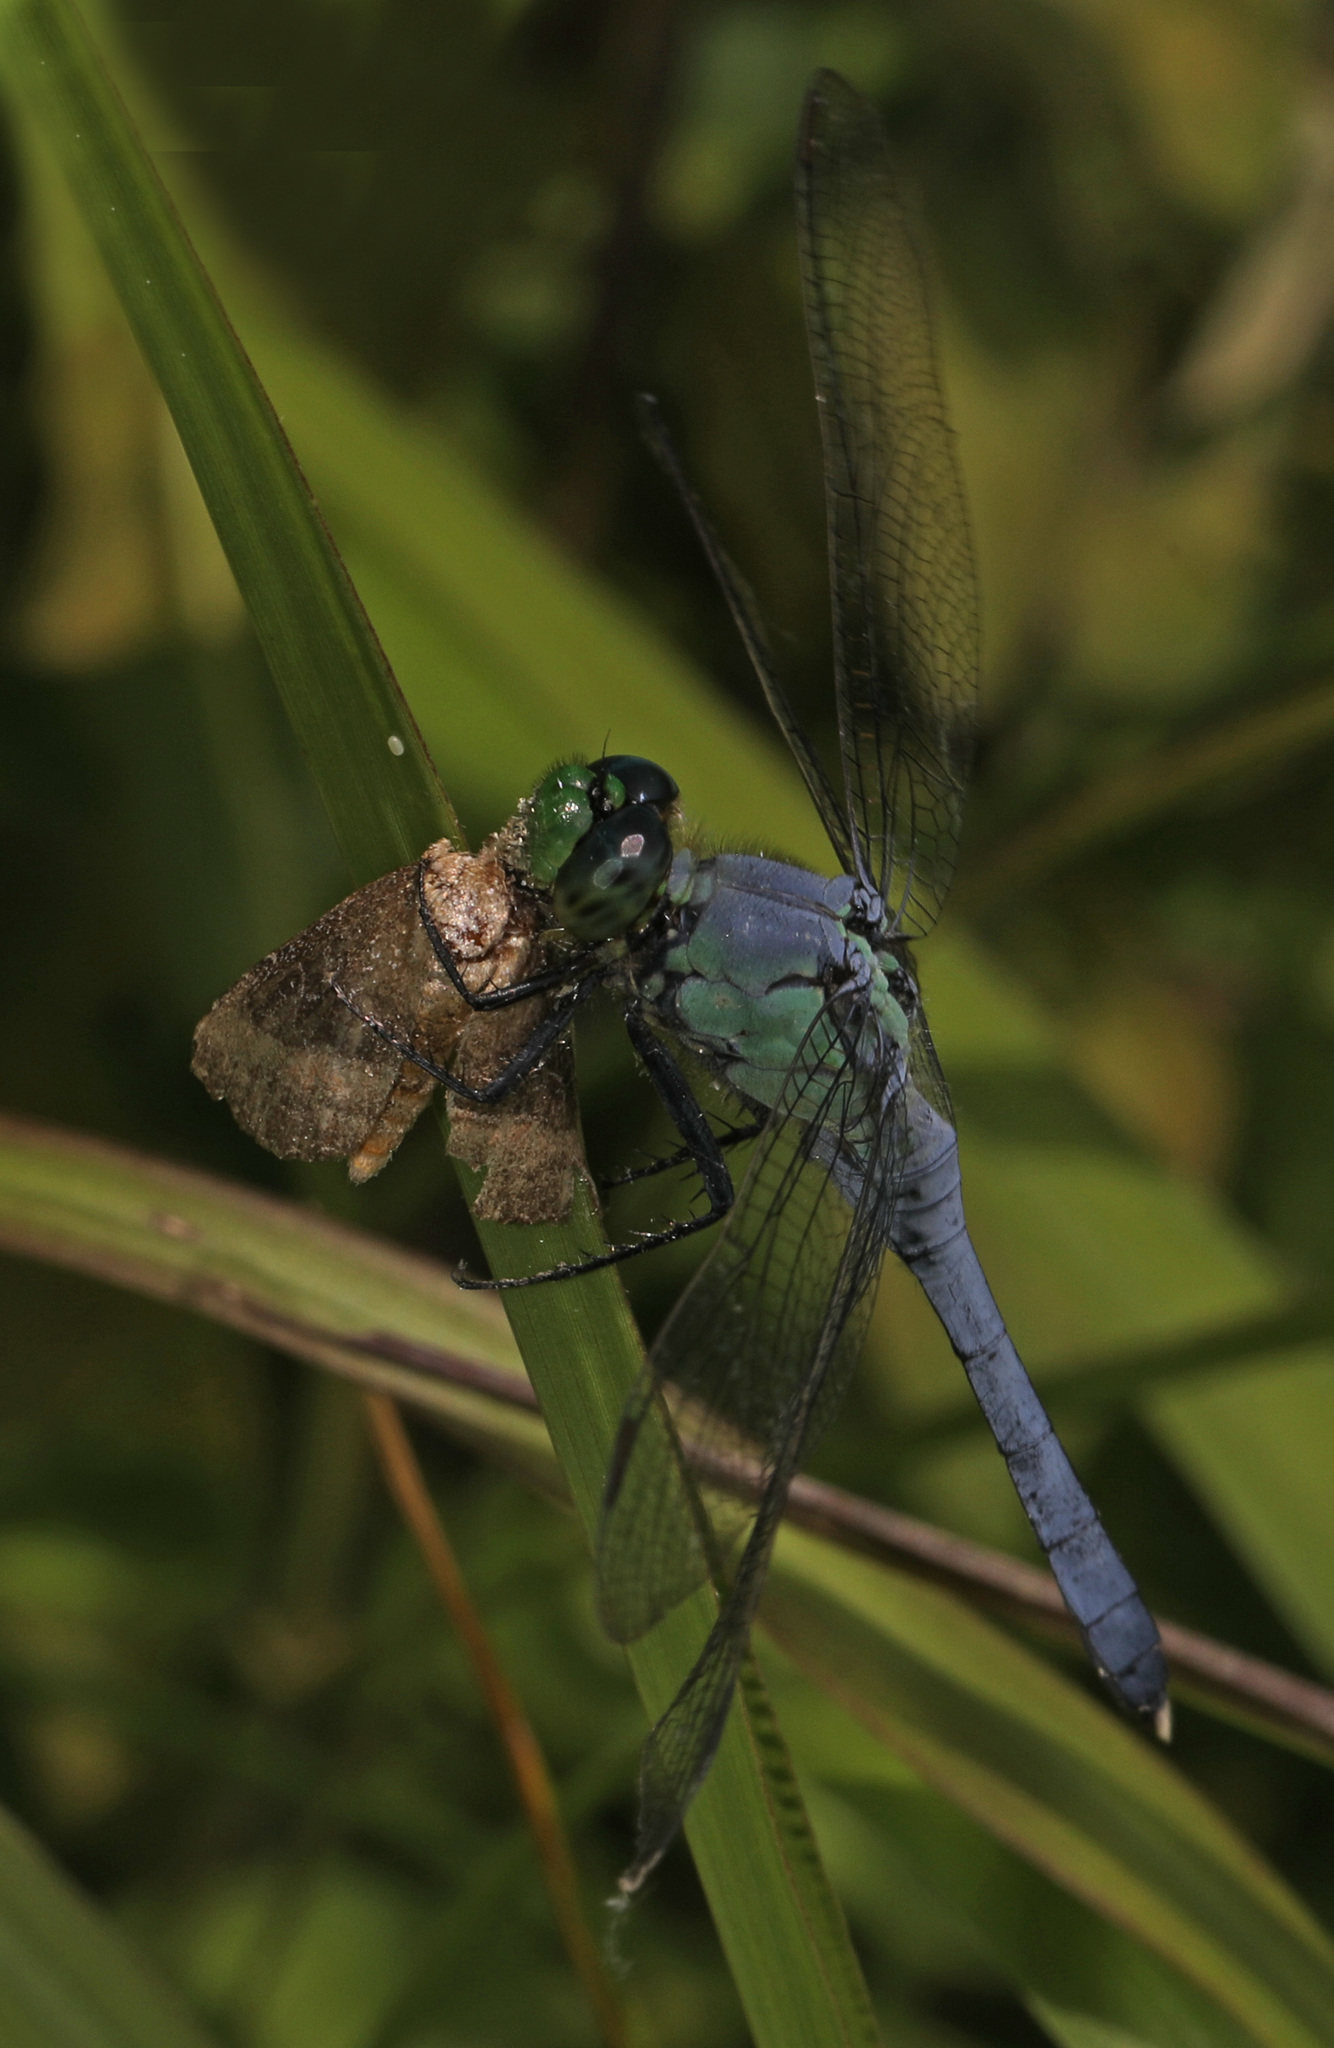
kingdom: Animalia
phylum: Arthropoda
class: Insecta
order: Odonata
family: Libellulidae
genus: Erythemis
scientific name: Erythemis simplicicollis
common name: Eastern pondhawk
